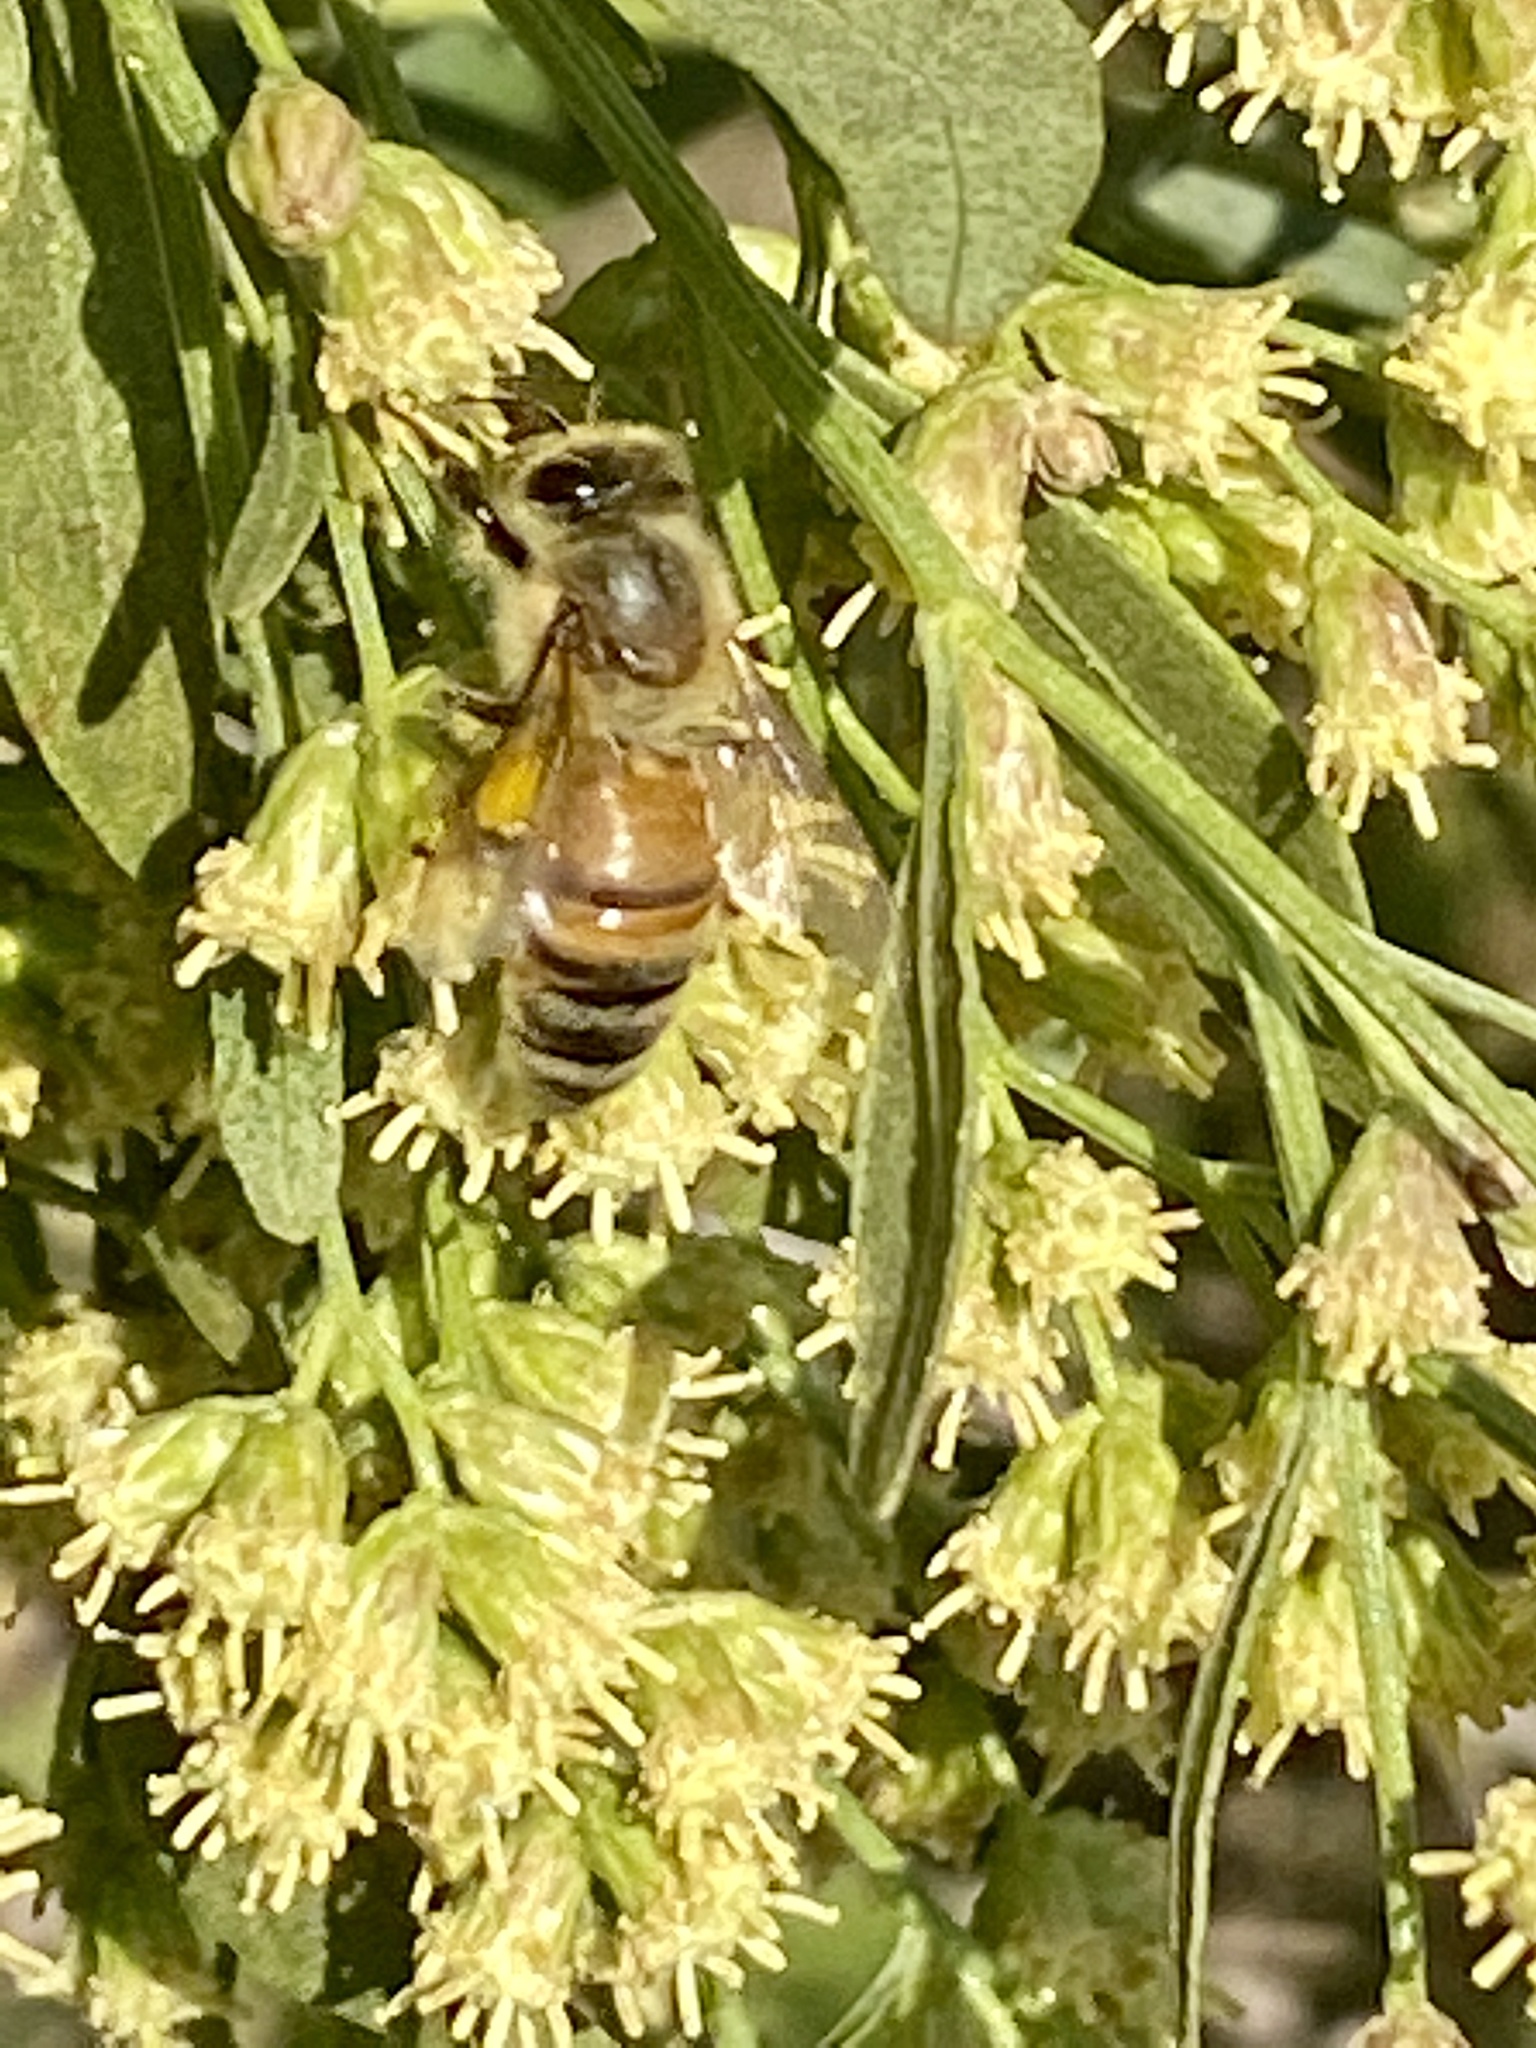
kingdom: Animalia
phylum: Arthropoda
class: Insecta
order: Hymenoptera
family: Apidae
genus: Apis
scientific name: Apis mellifera
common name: Honey bee
